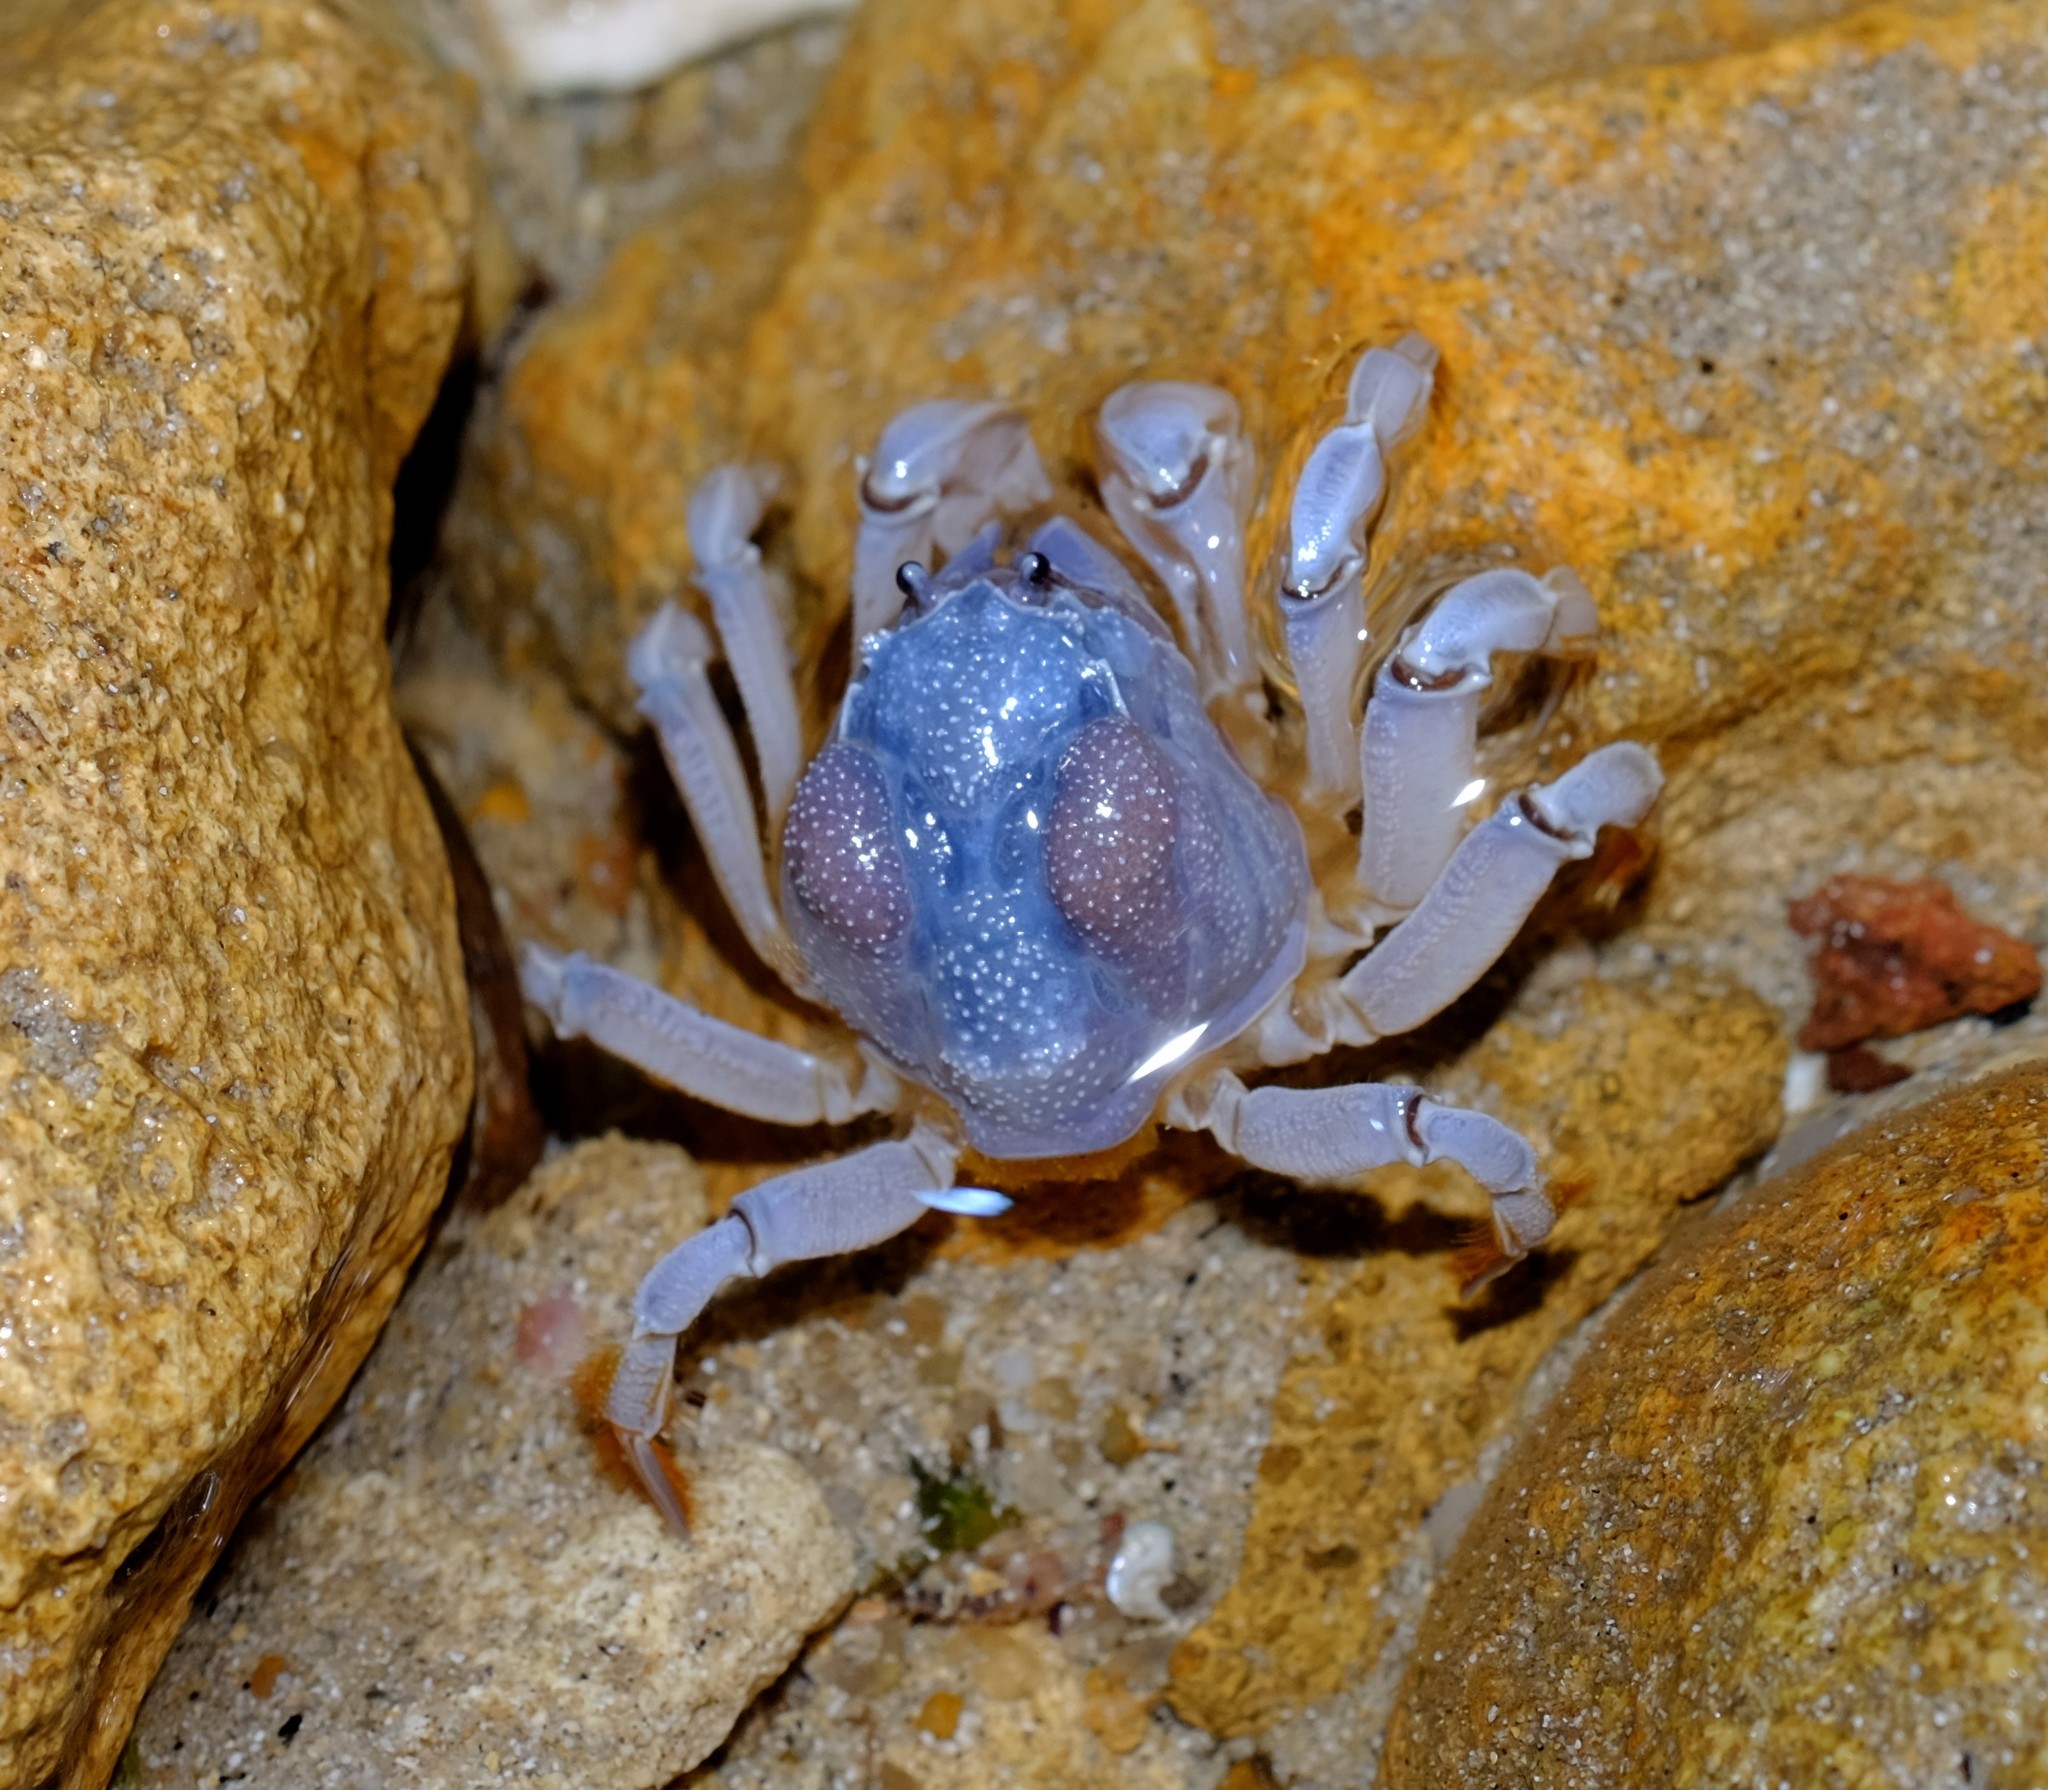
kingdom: Animalia
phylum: Arthropoda
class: Malacostraca
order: Decapoda
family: Mictyridae
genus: Mictyris
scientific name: Mictyris platycheles
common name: Dark blue soldier crab
